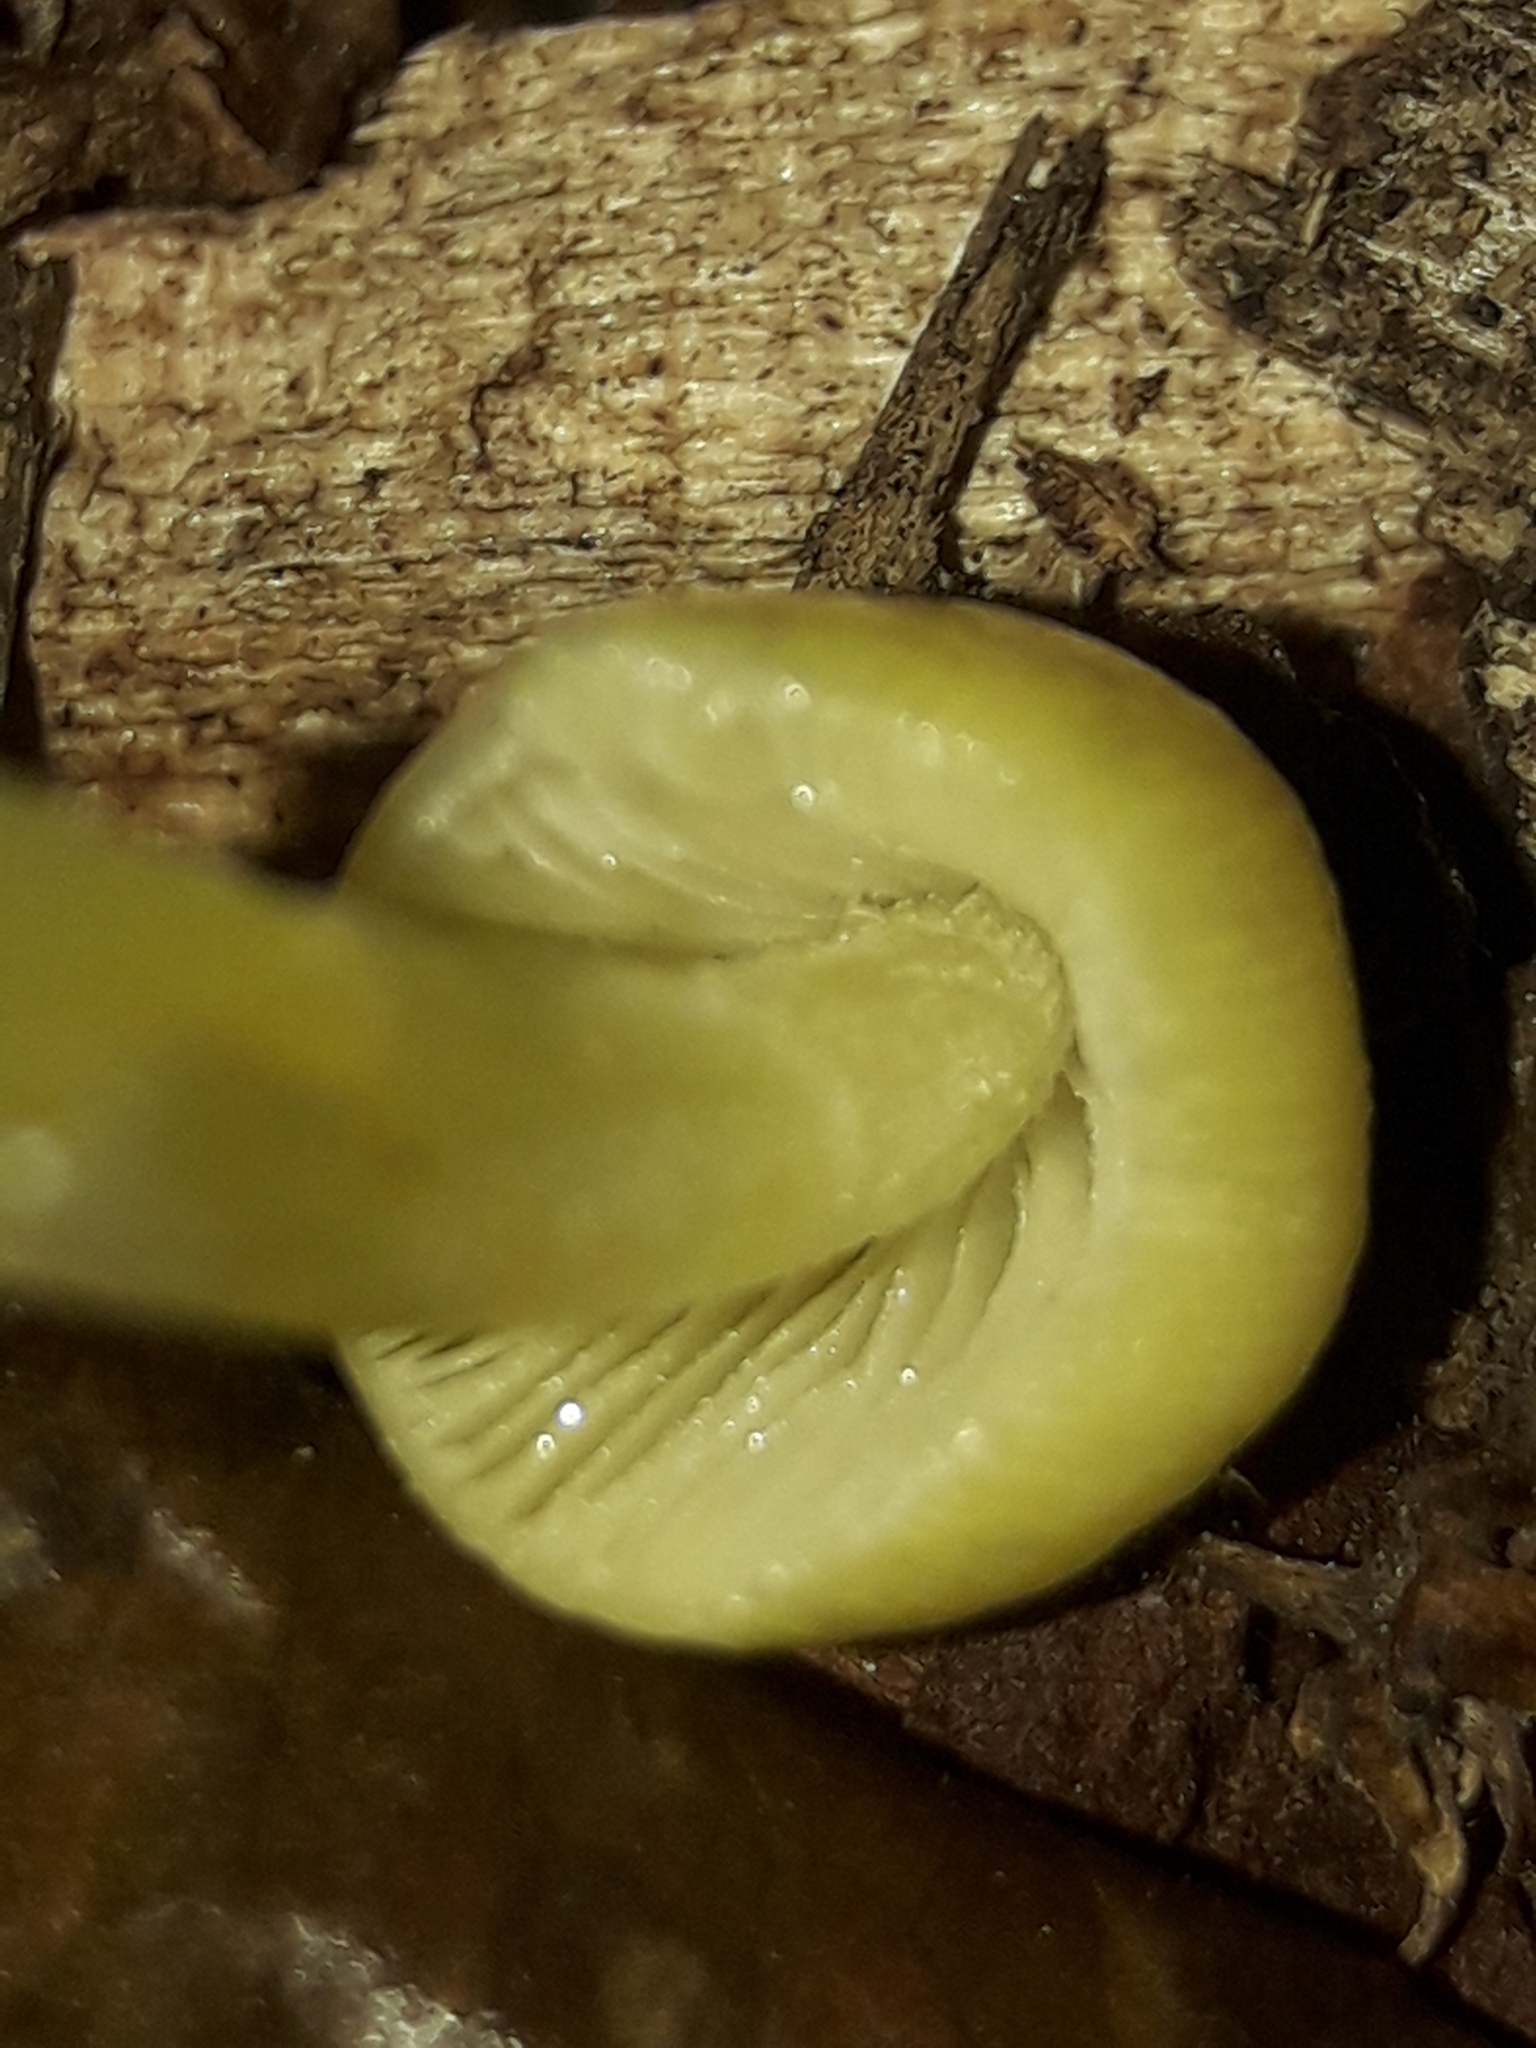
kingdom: Fungi
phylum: Basidiomycota
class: Agaricomycetes
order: Agaricales
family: Bolbitiaceae
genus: Bolbitius
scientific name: Bolbitius titubans
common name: Yellow fieldcap
